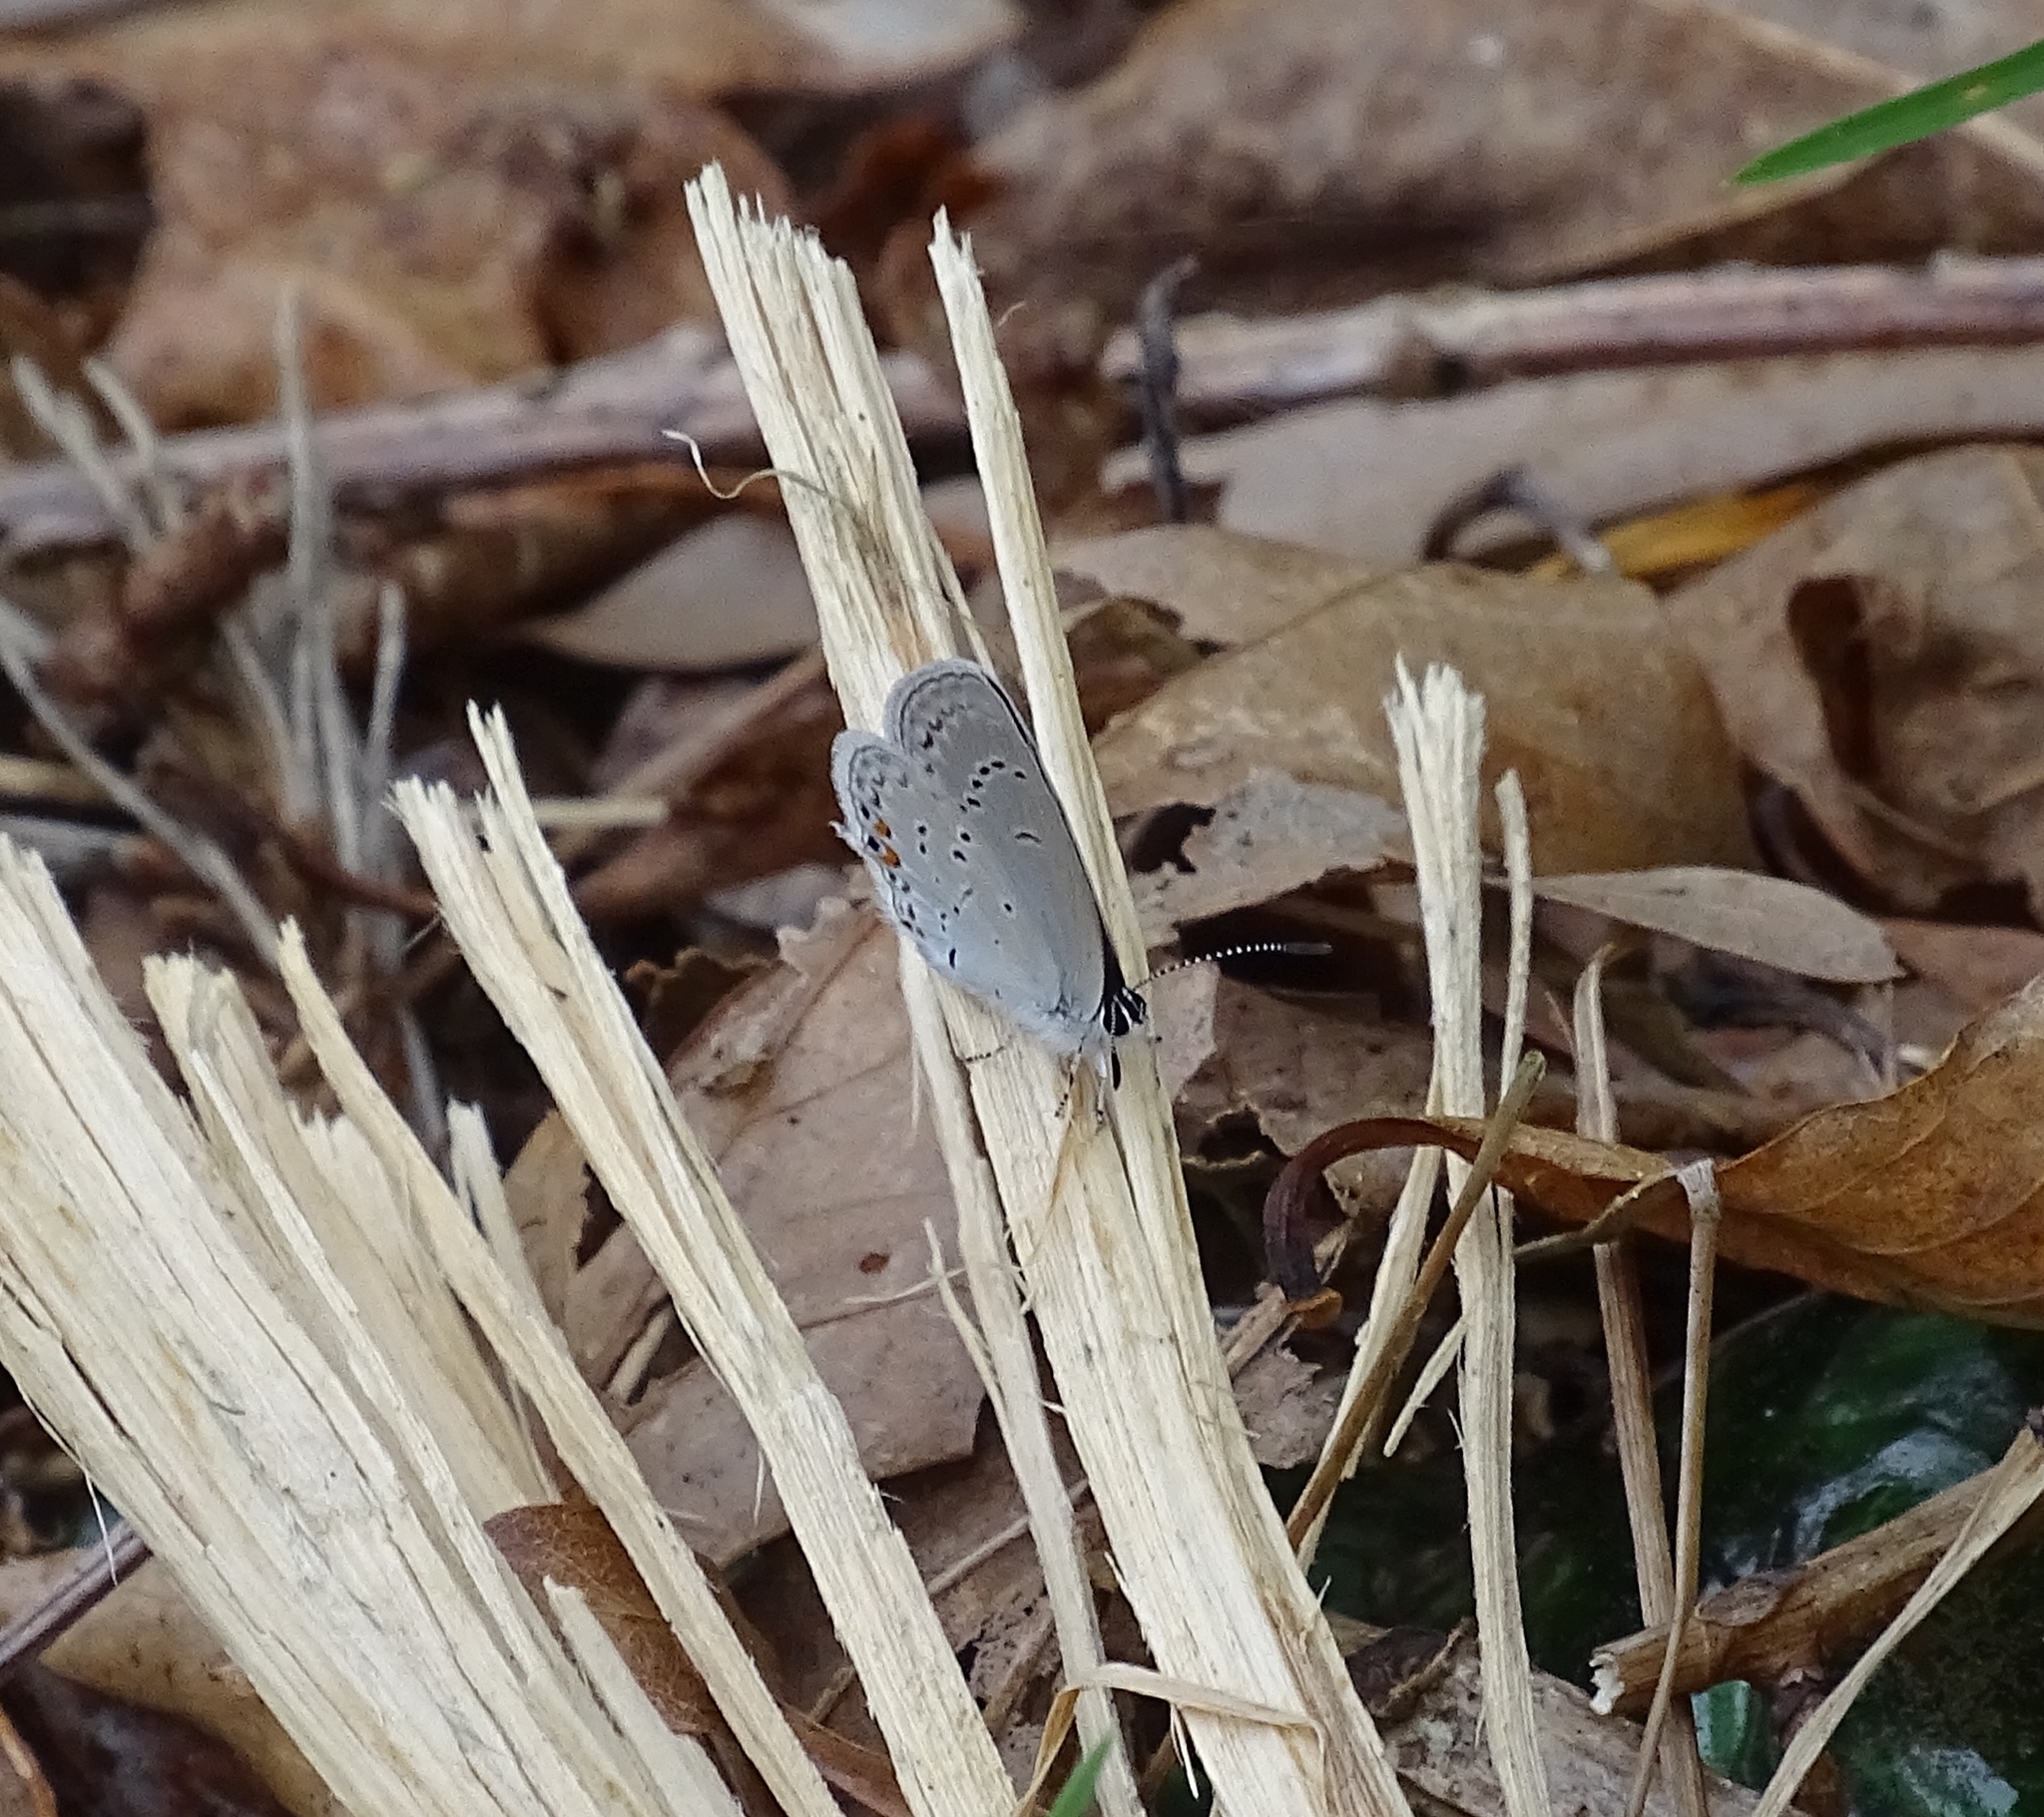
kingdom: Animalia
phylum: Arthropoda
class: Insecta
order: Lepidoptera
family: Lycaenidae
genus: Elkalyce
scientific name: Elkalyce comyntas
